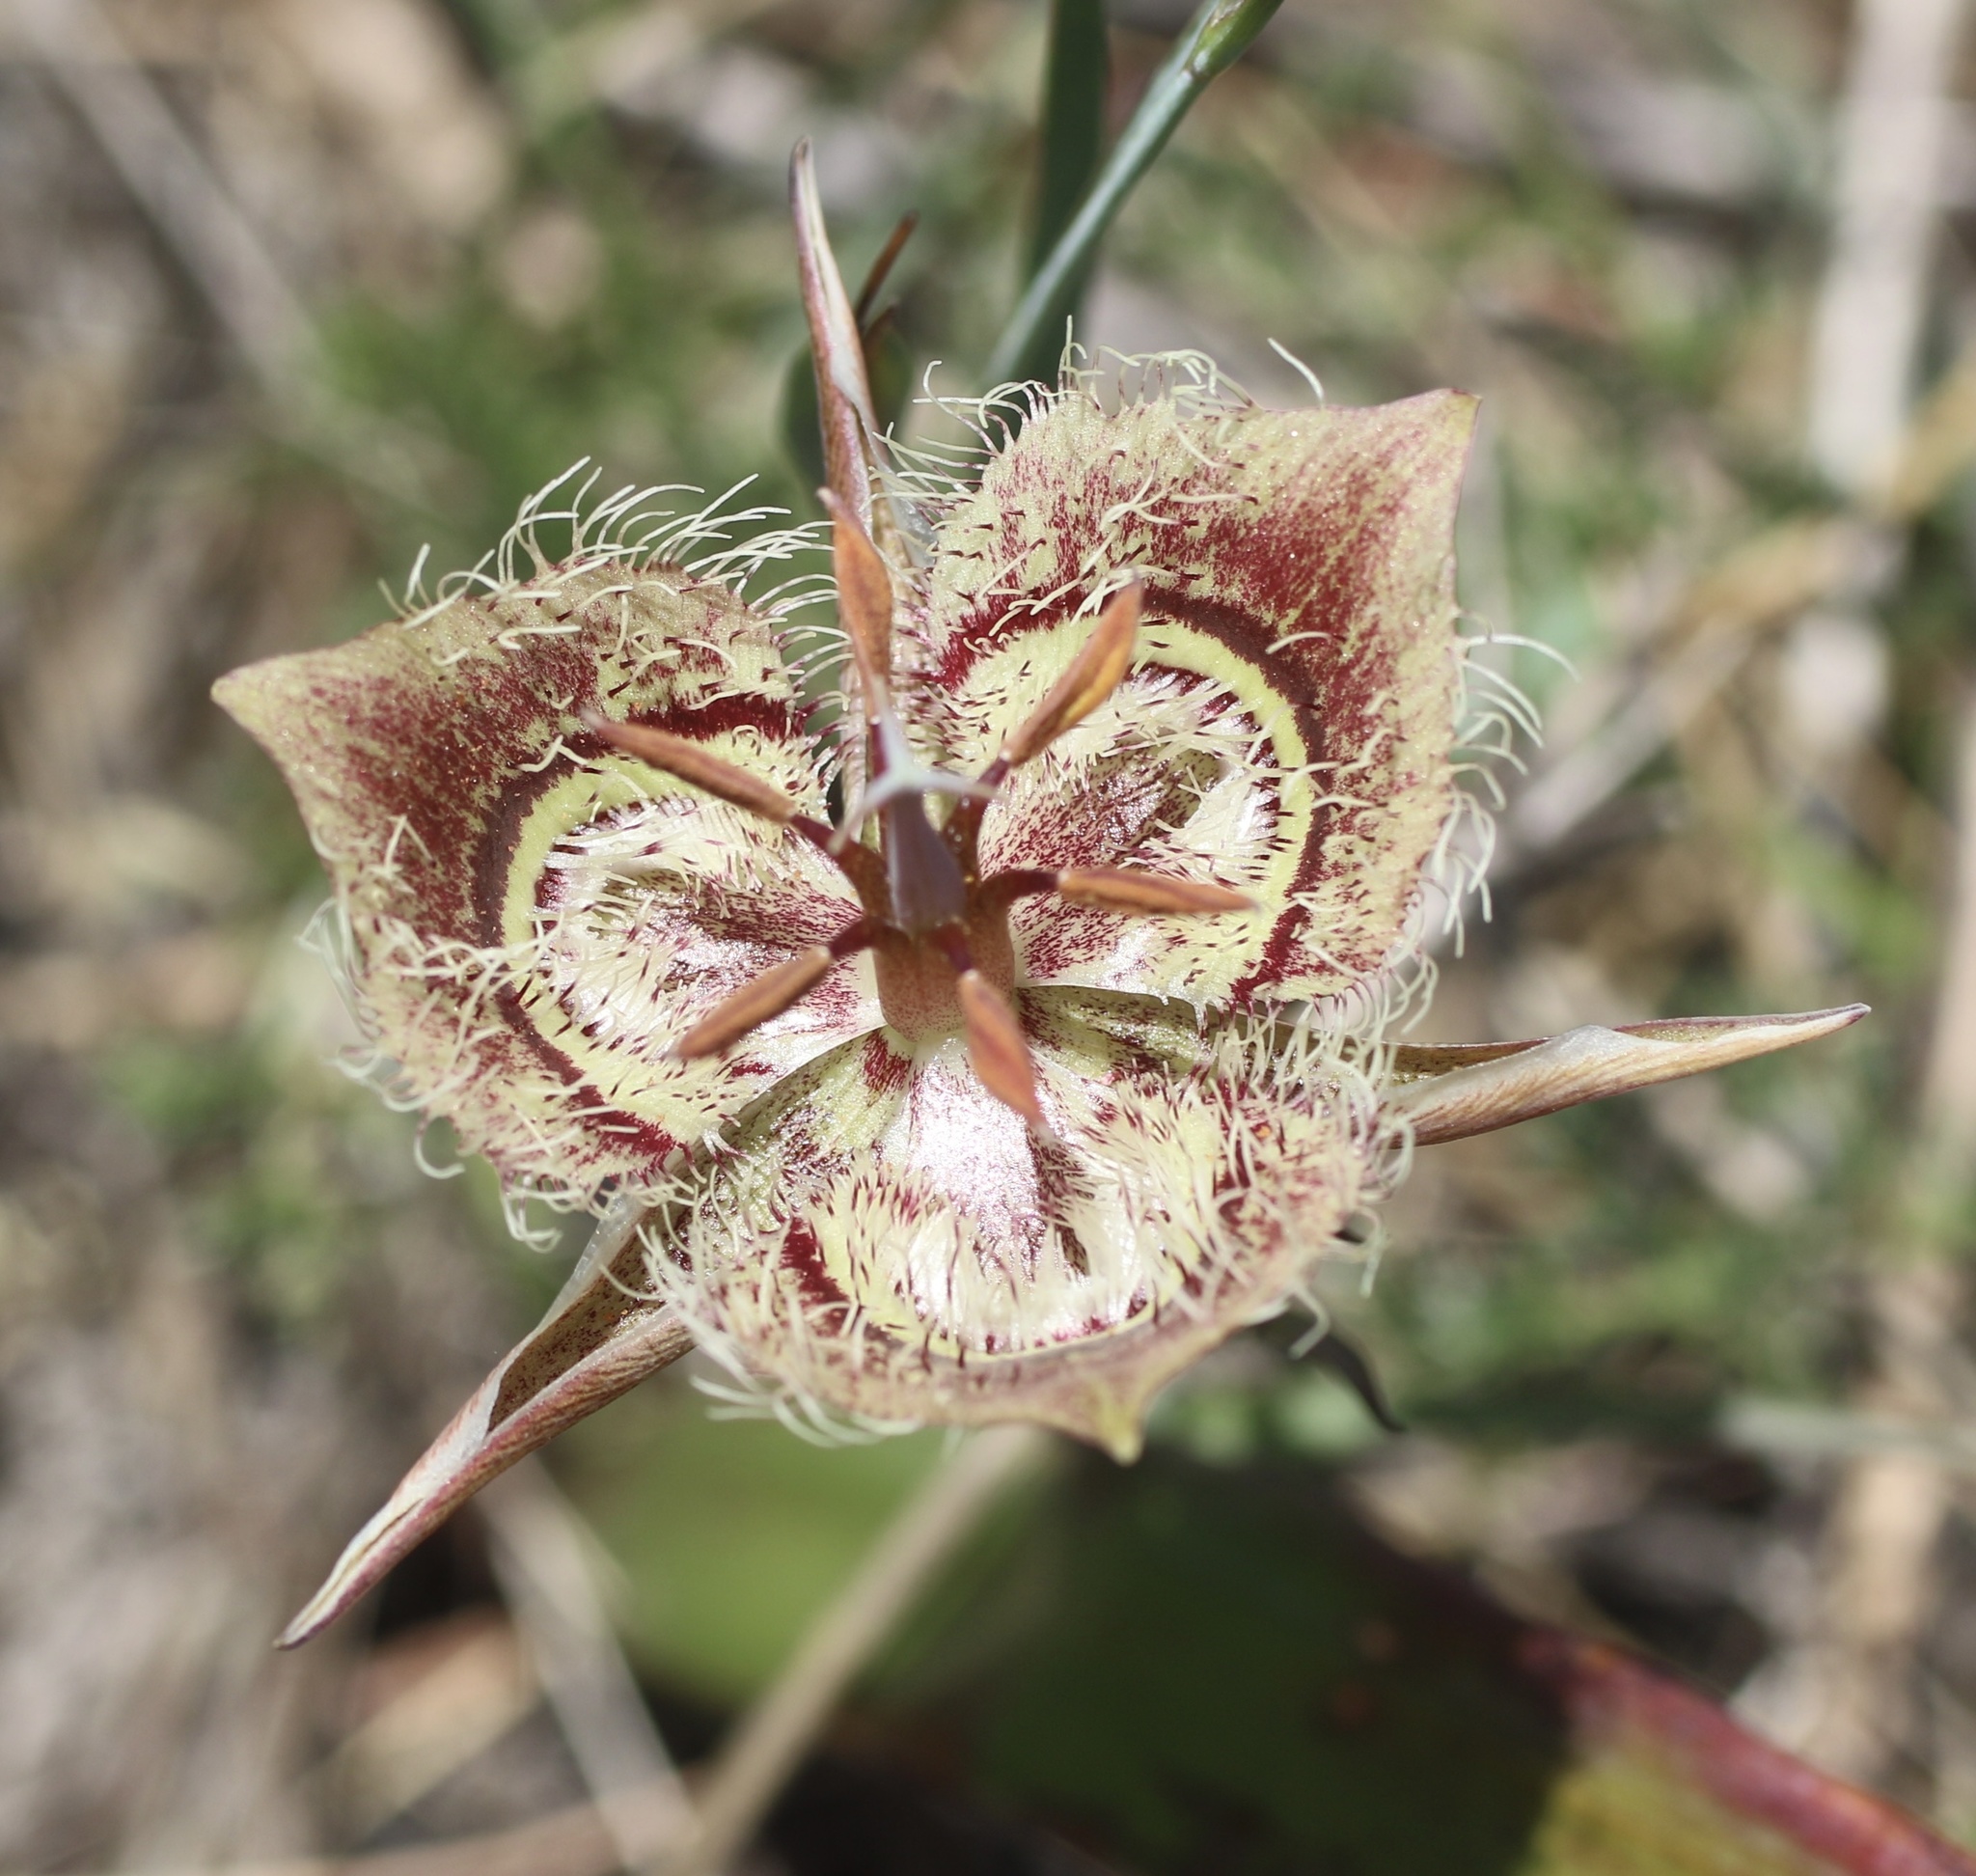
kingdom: Plantae
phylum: Tracheophyta
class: Liliopsida
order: Liliales
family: Liliaceae
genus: Calochortus
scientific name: Calochortus tiburonensis
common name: Tiburon mariposa-lily
